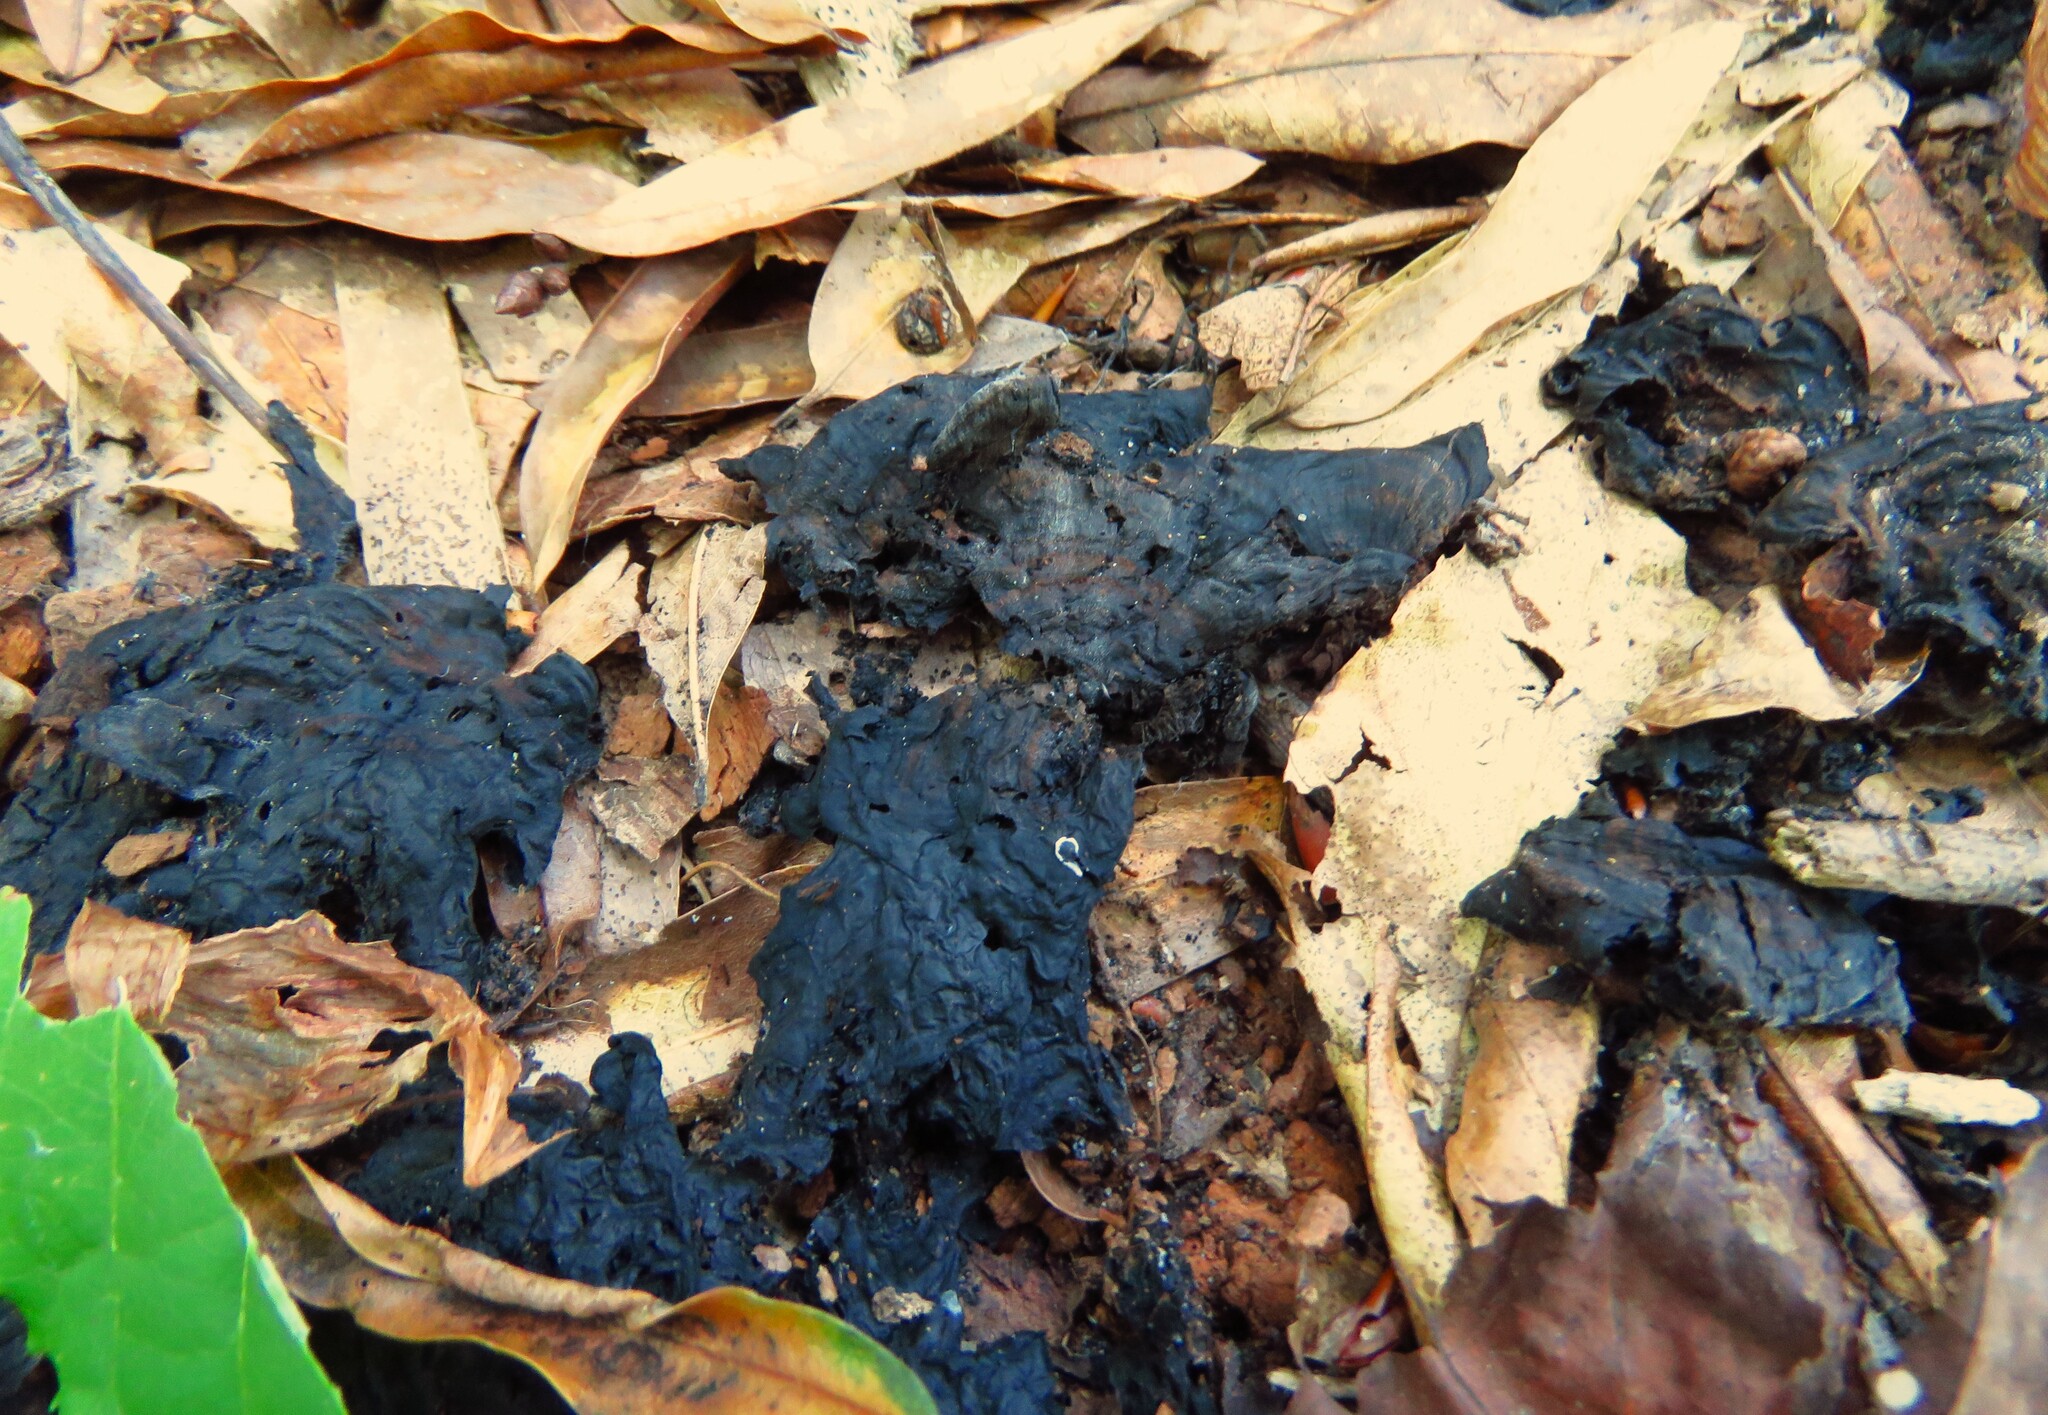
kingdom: Bacteria
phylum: Cyanobacteria
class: Cyanobacteriia
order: Cyanobacteriales
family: Nostocaceae
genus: Nostoc
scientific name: Nostoc commune
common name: Star jelly
